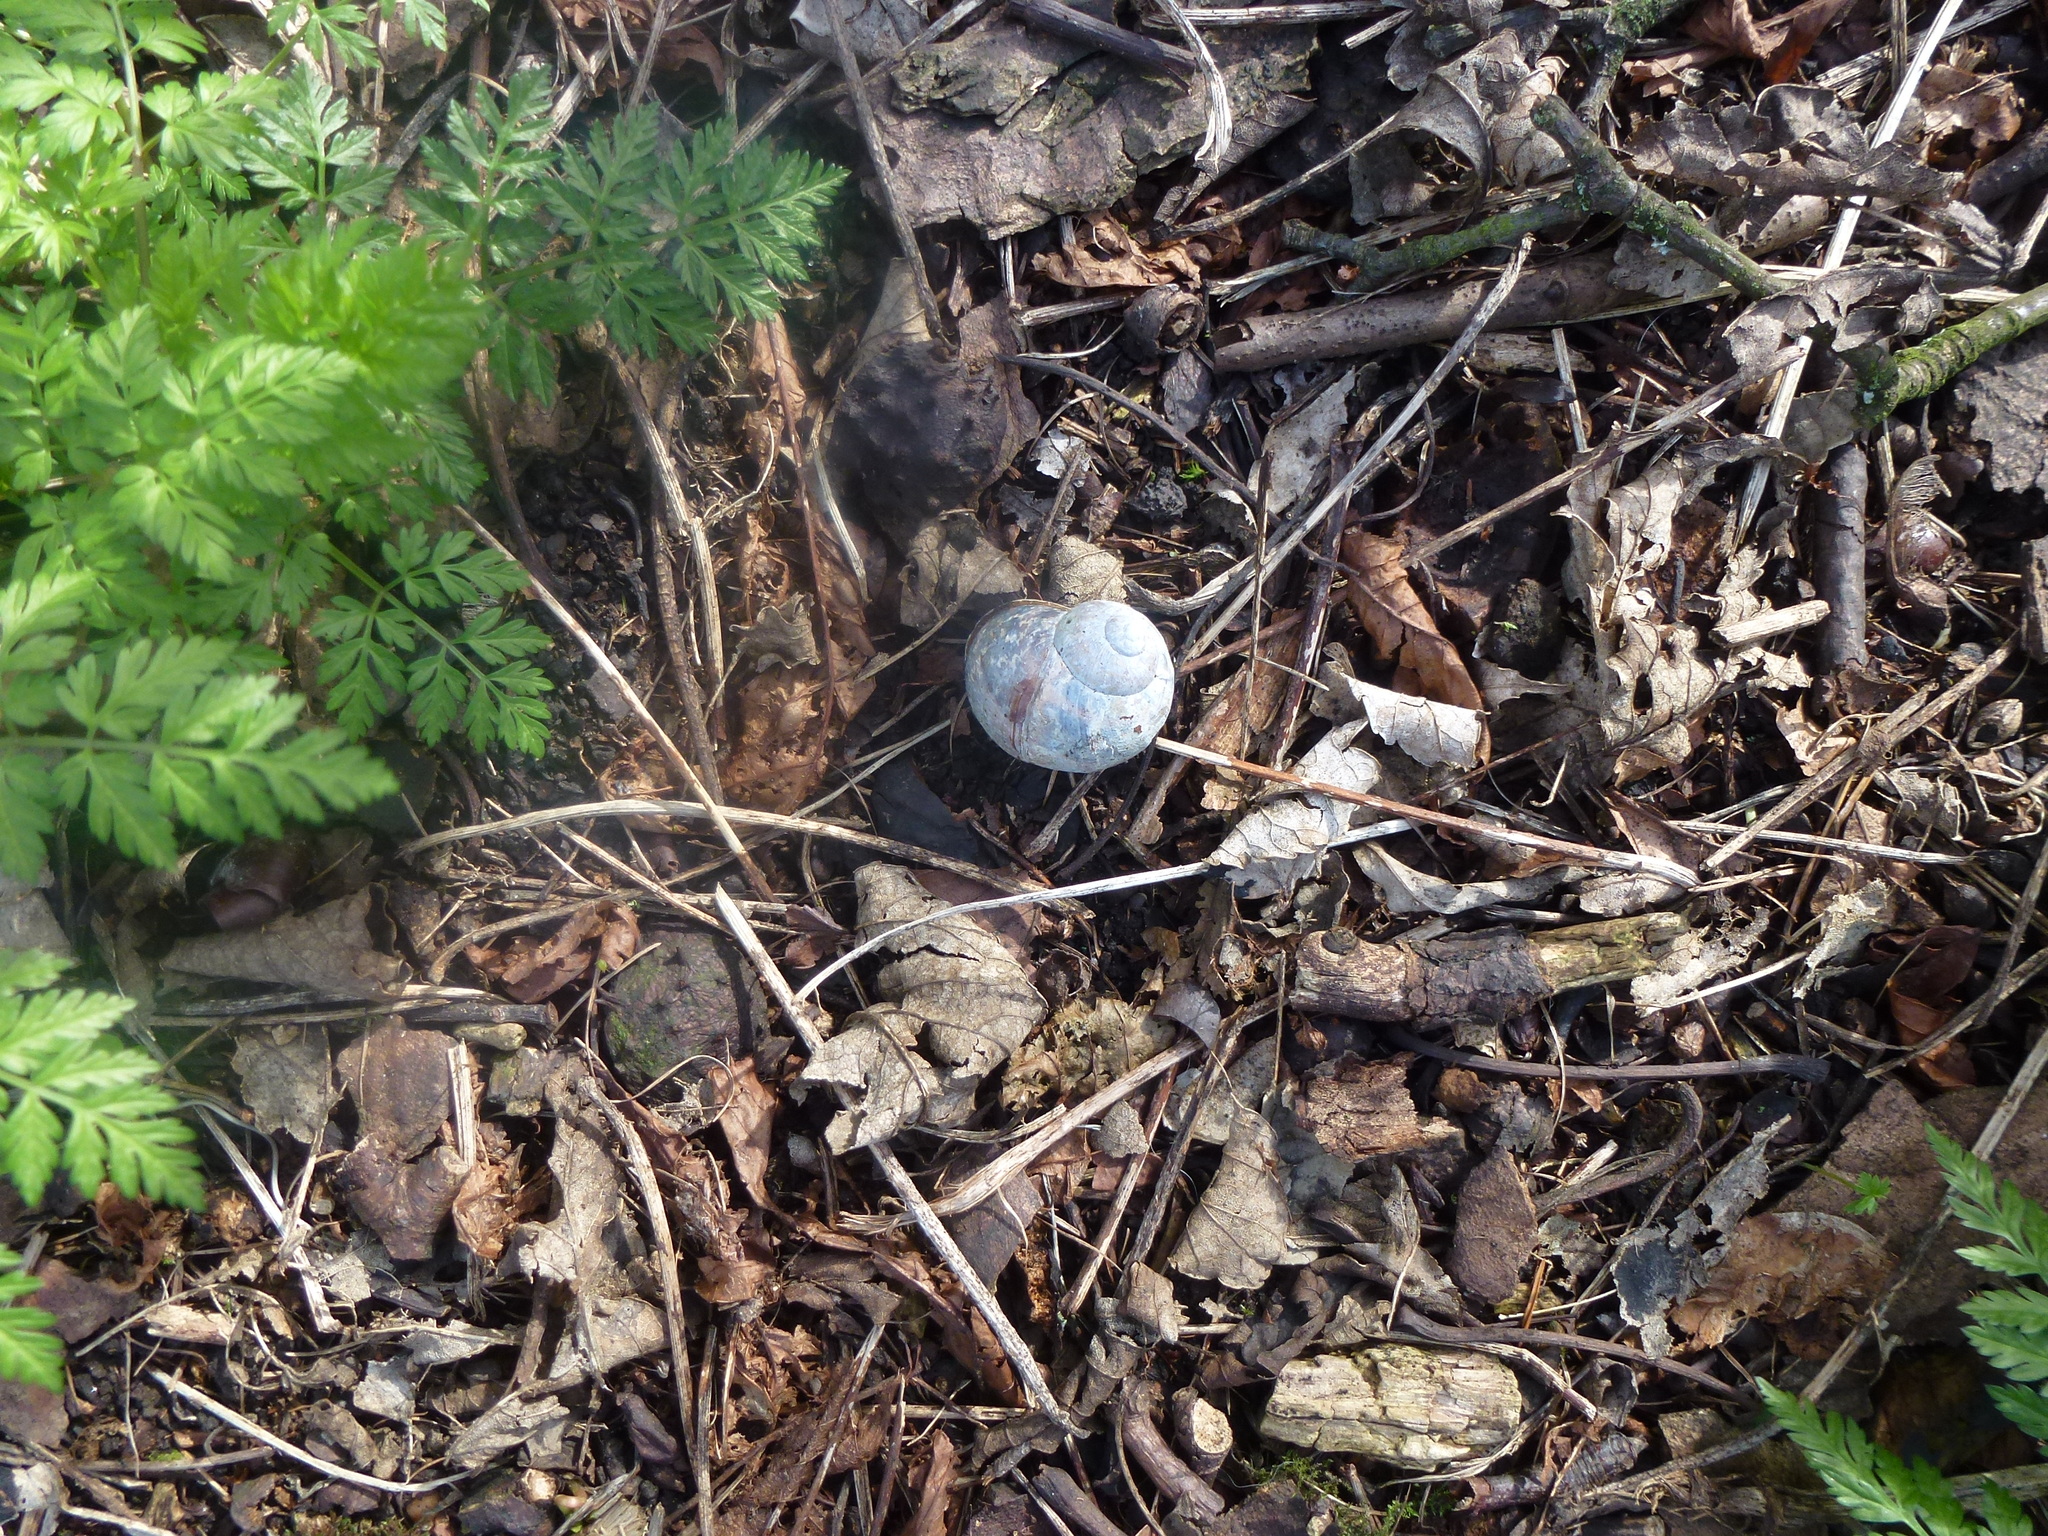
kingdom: Animalia
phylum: Mollusca
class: Gastropoda
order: Stylommatophora
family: Helicidae
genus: Cornu
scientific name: Cornu aspersum
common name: Brown garden snail
